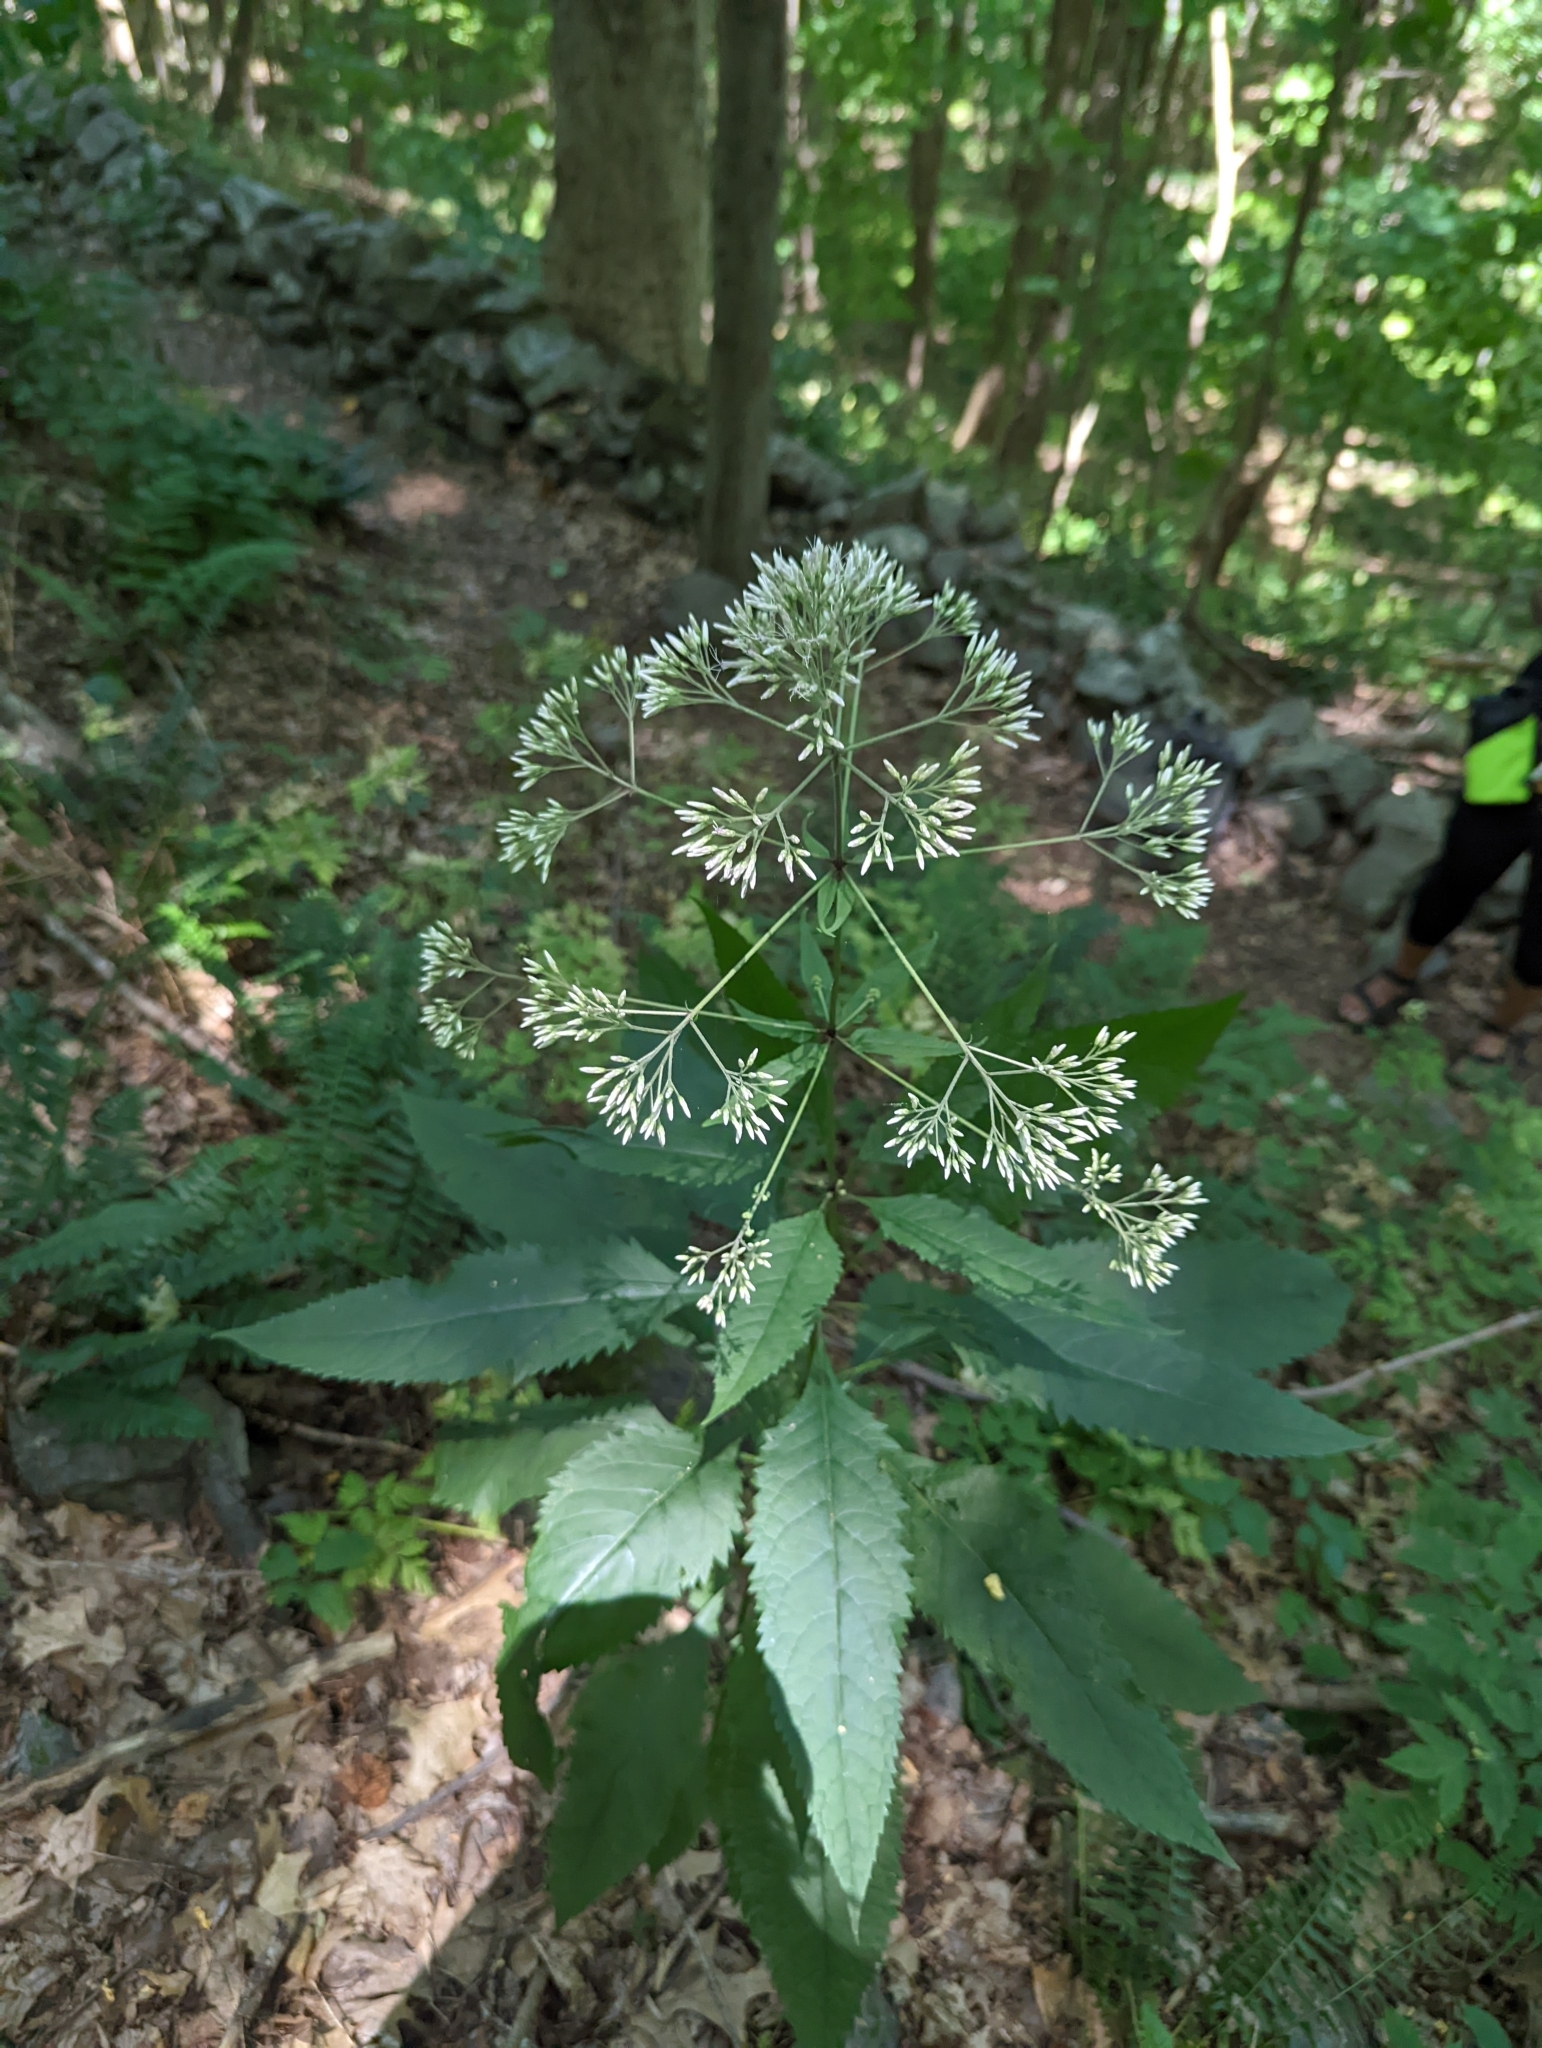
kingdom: Plantae
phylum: Tracheophyta
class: Magnoliopsida
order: Asterales
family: Asteraceae
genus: Eutrochium
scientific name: Eutrochium purpureum
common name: Gravelroot
